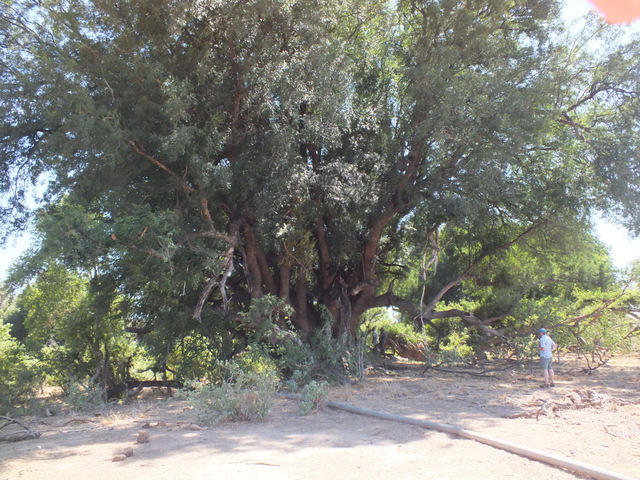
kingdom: Plantae
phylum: Tracheophyta
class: Magnoliopsida
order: Fabales
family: Fabaceae
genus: Xanthocercis
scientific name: Xanthocercis zambesiaca
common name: Nyala-tree
